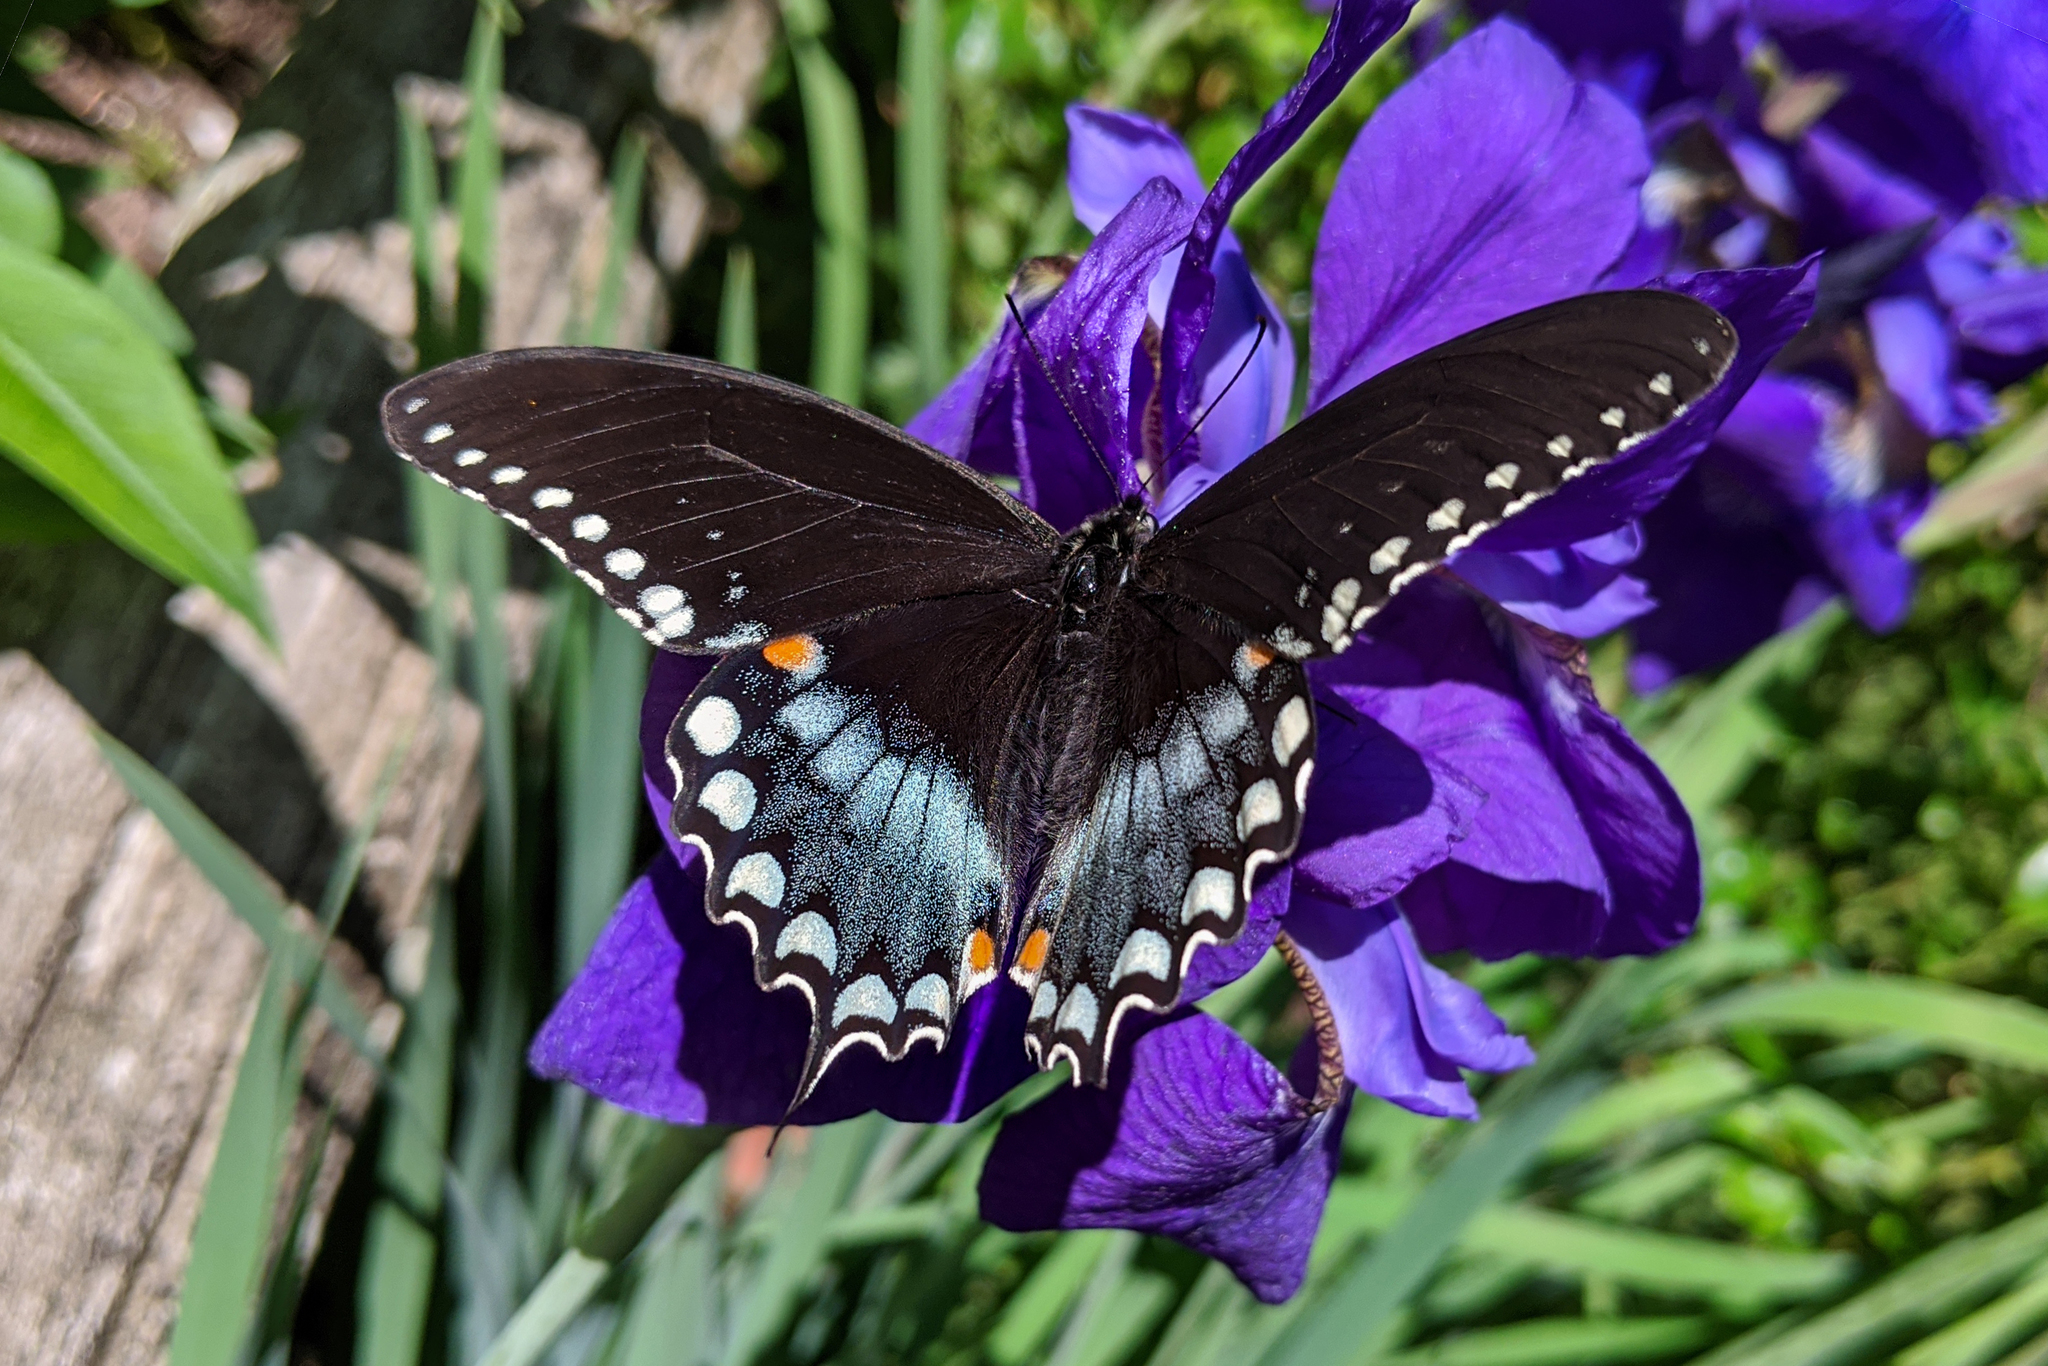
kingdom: Animalia
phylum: Arthropoda
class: Insecta
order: Lepidoptera
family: Papilionidae
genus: Papilio
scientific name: Papilio troilus
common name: Spicebush swallowtail
